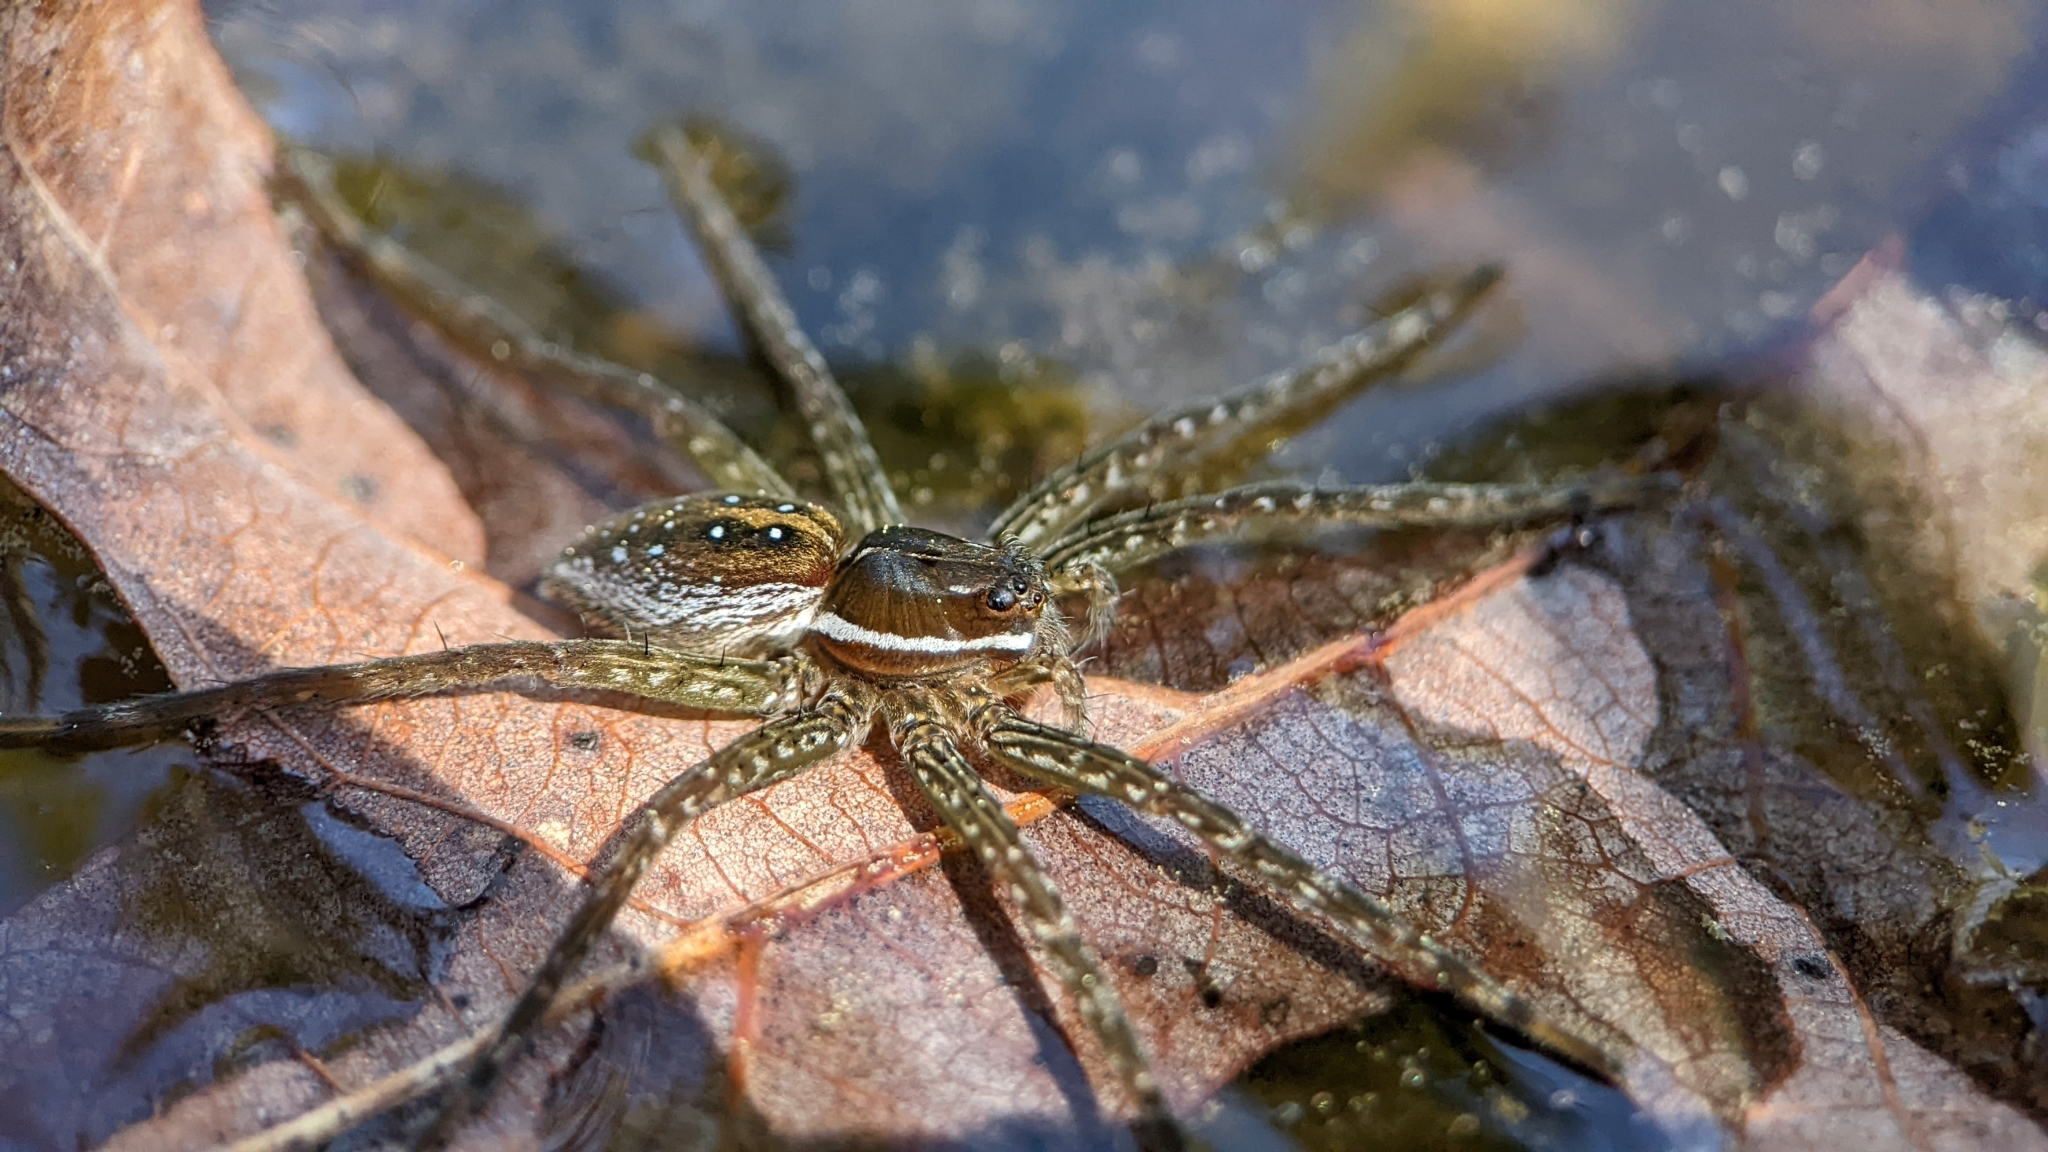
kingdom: Animalia
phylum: Arthropoda
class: Arachnida
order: Araneae
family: Pisauridae
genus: Dolomedes
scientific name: Dolomedes triton
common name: Six-spotted fishing spider
